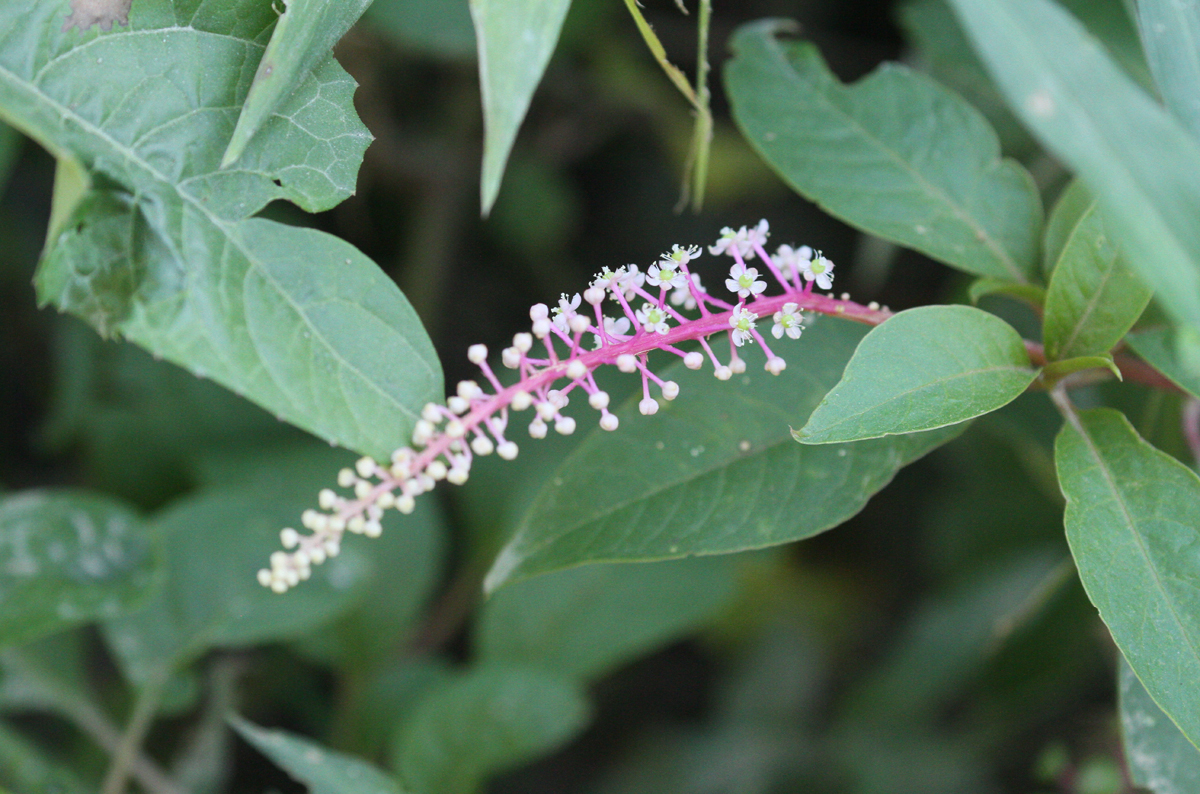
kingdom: Plantae
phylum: Tracheophyta
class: Magnoliopsida
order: Caryophyllales
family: Phytolaccaceae
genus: Phytolacca
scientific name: Phytolacca rivinoides
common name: Venezuelan pokeweed
